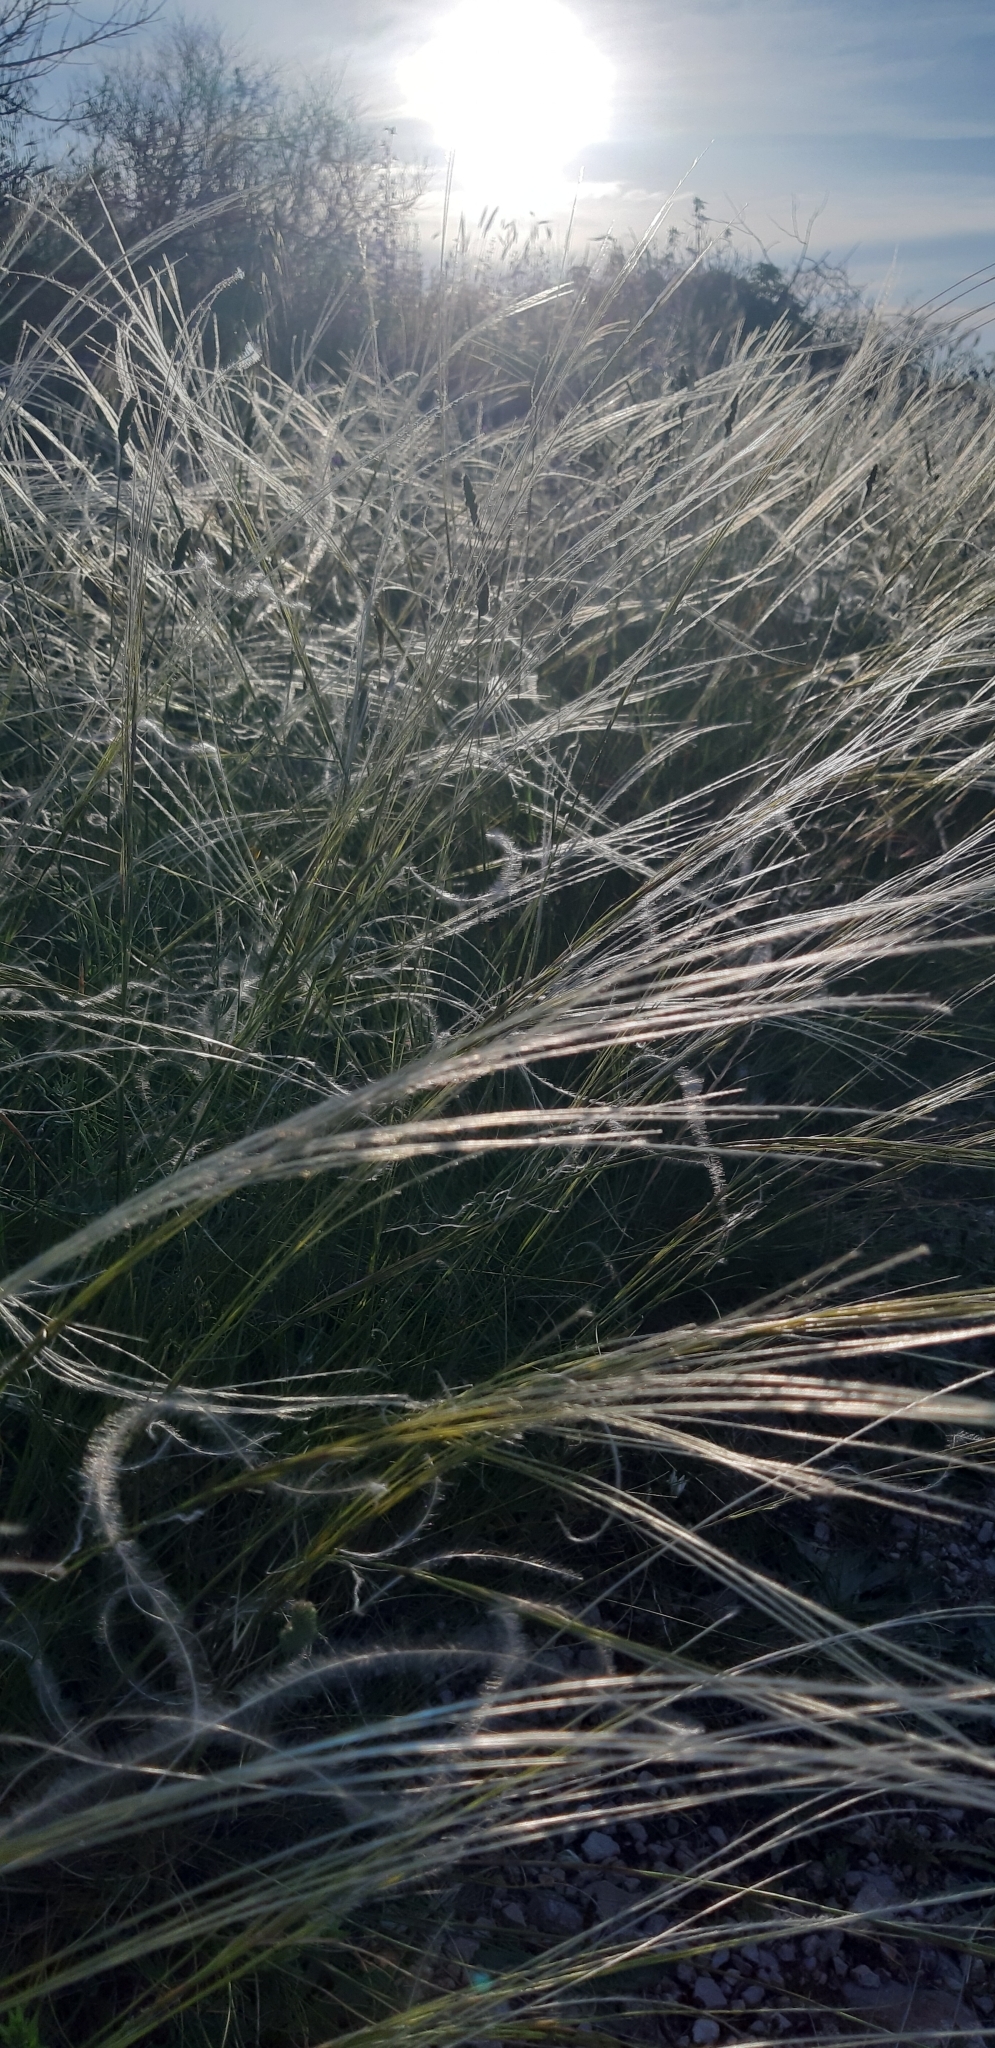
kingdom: Plantae
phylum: Tracheophyta
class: Liliopsida
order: Poales
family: Poaceae
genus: Stipa
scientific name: Stipa austroitalica
